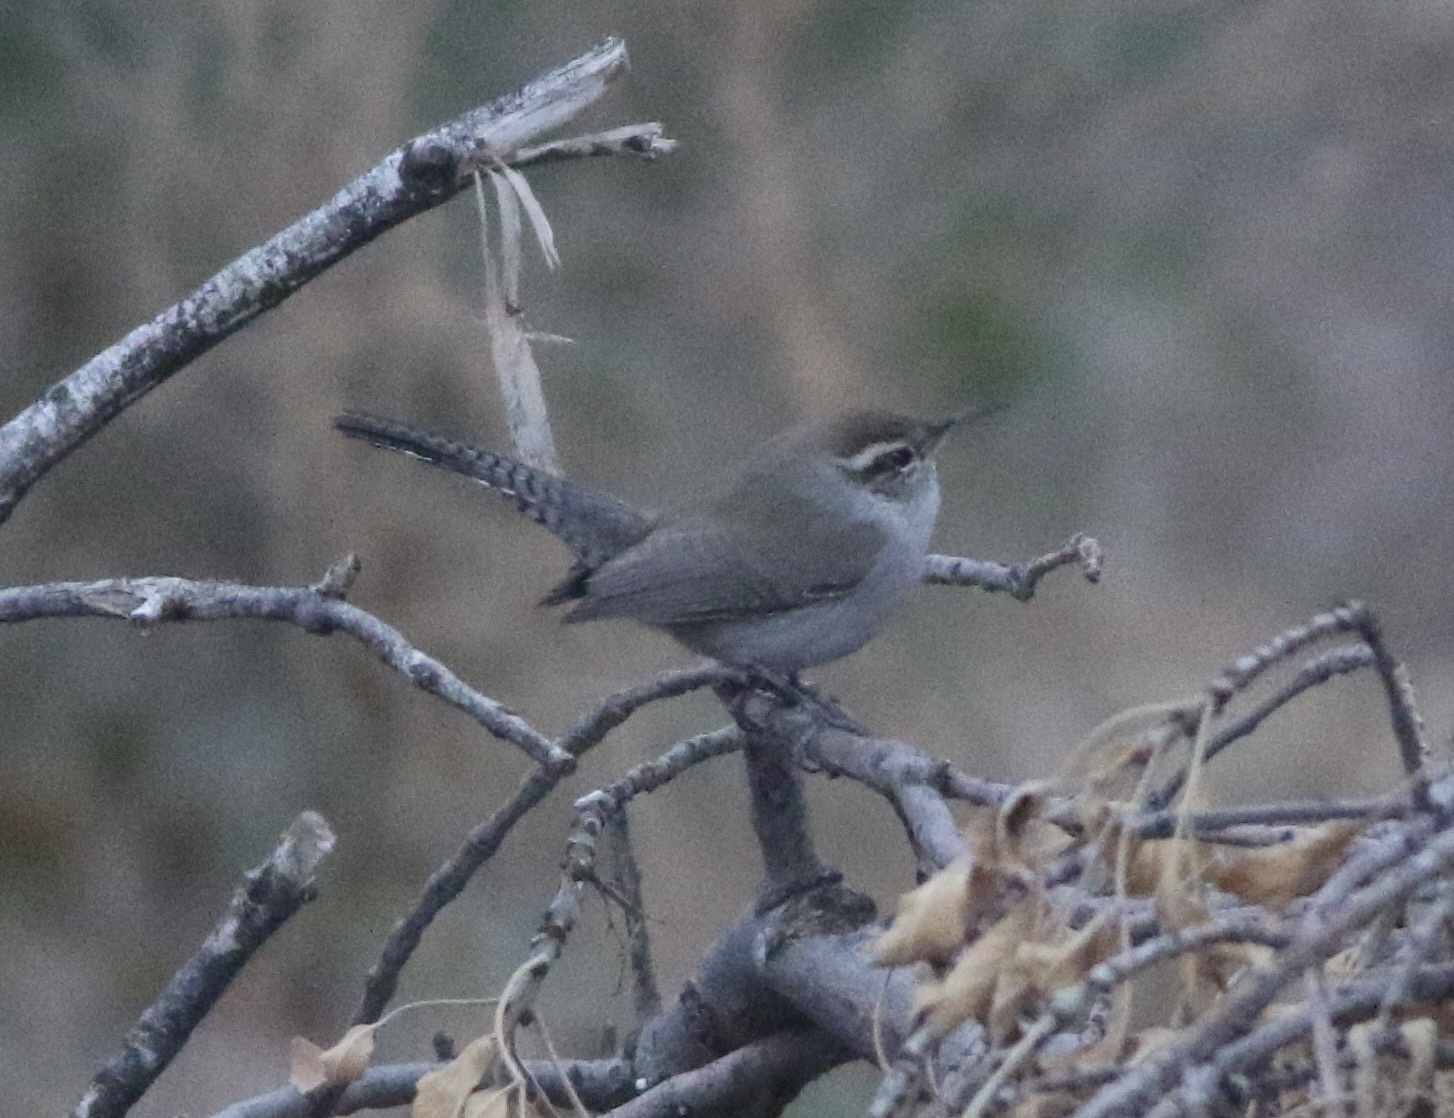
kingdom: Animalia
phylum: Chordata
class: Aves
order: Passeriformes
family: Troglodytidae
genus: Thryomanes
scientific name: Thryomanes bewickii
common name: Bewick's wren
